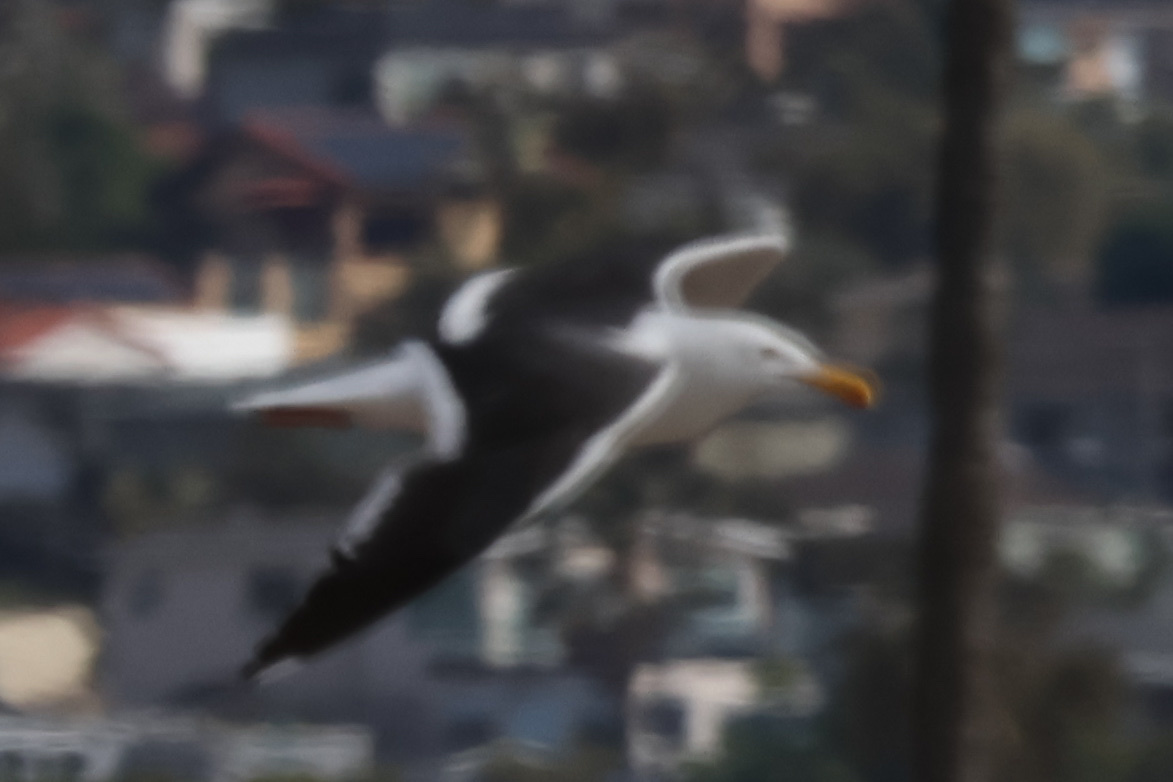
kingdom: Animalia
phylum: Chordata
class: Aves
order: Charadriiformes
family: Laridae
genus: Larus
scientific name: Larus occidentalis
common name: Western gull
